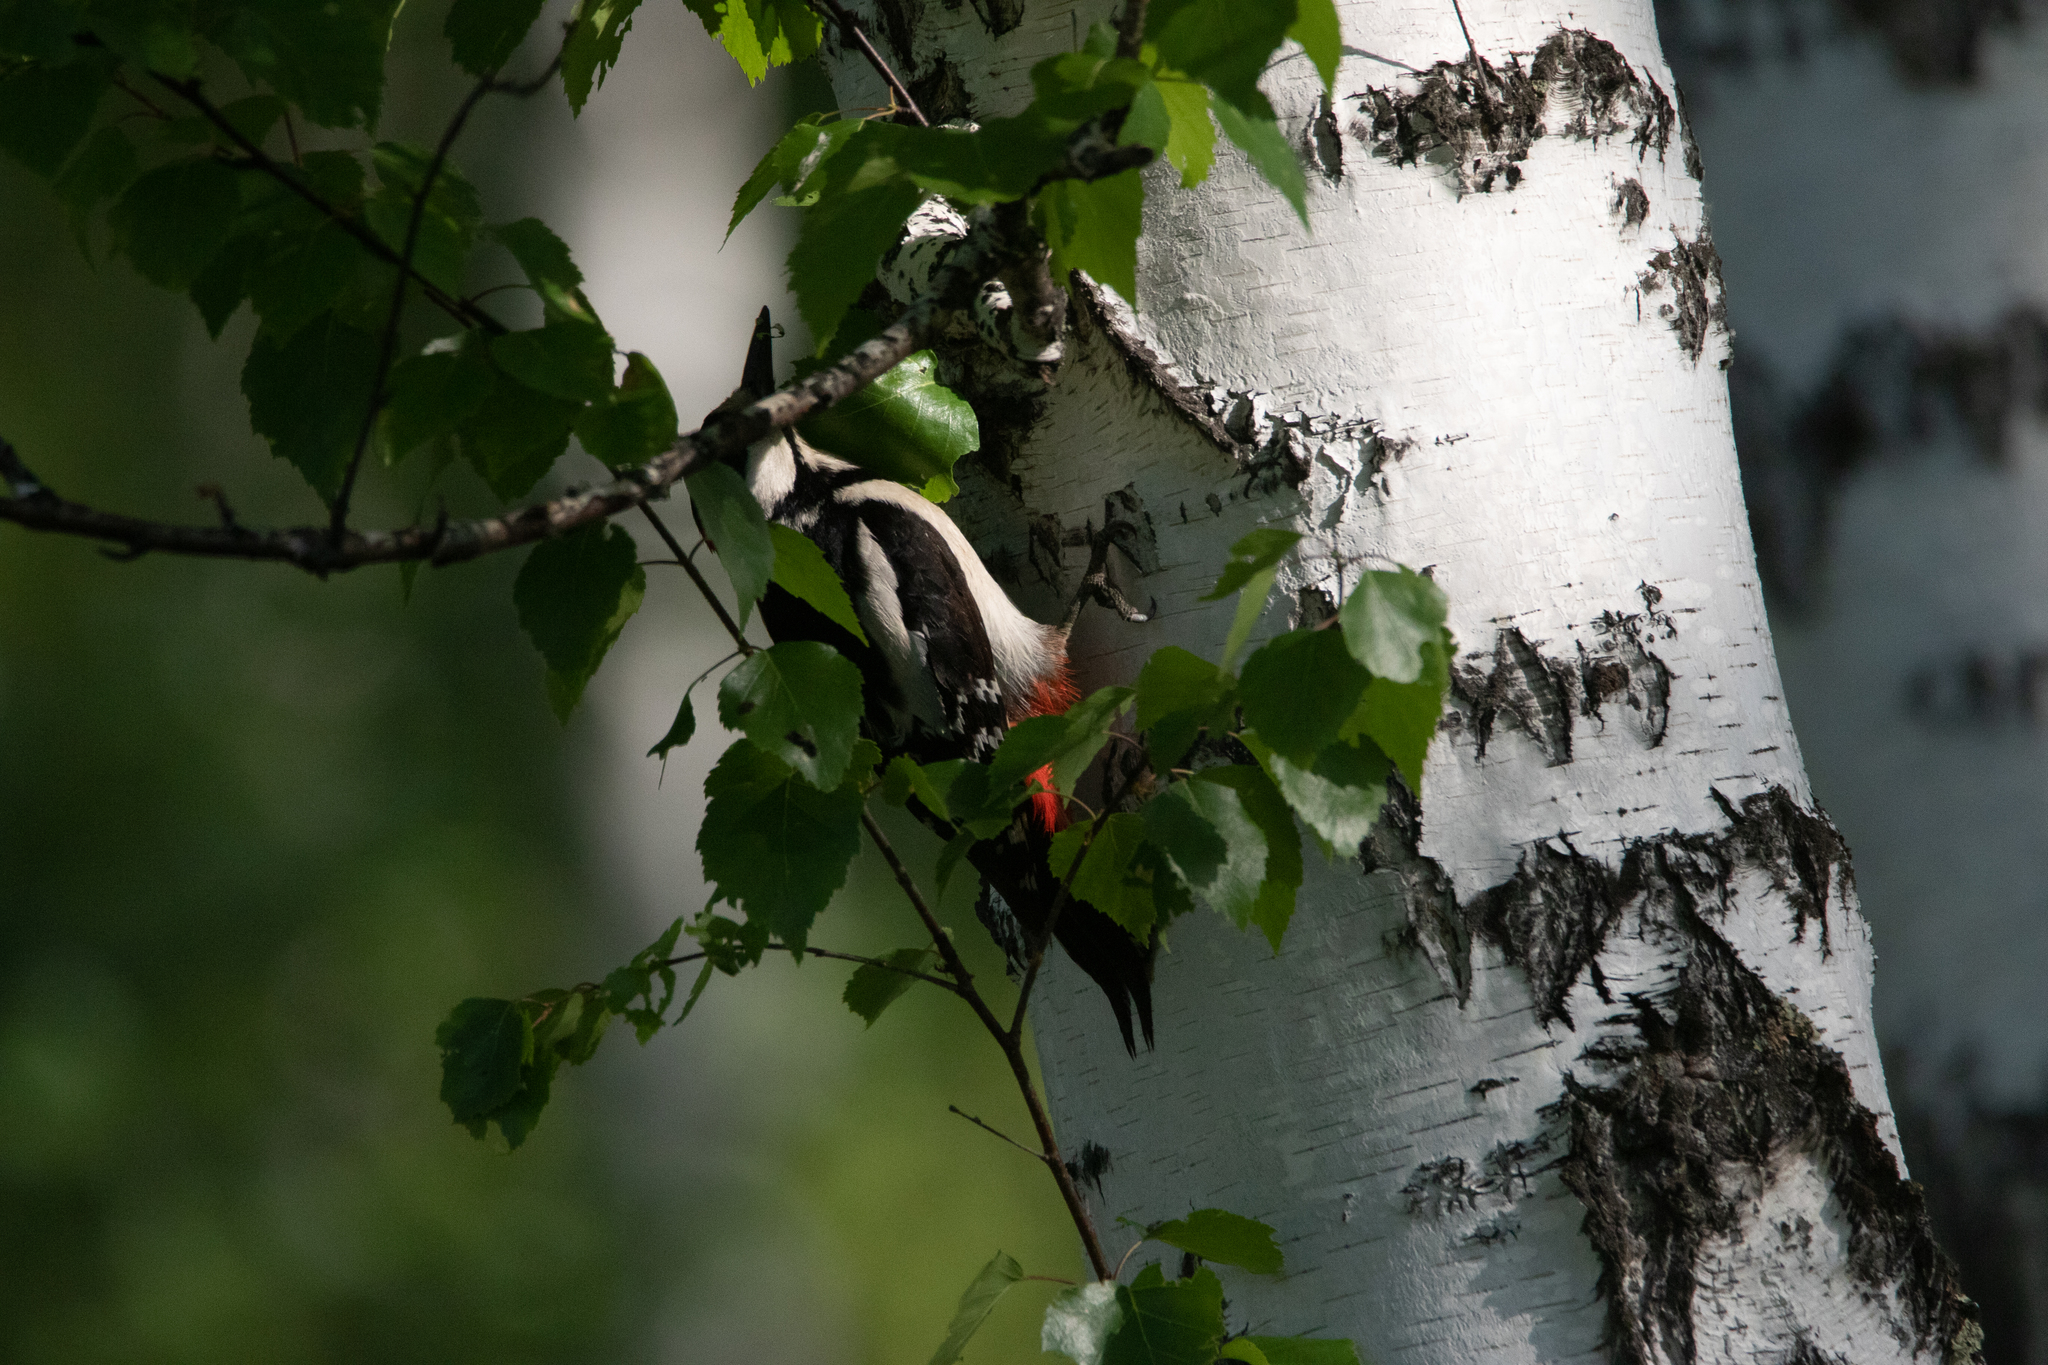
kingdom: Animalia
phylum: Chordata
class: Aves
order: Piciformes
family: Picidae
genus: Dendrocopos
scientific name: Dendrocopos major
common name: Great spotted woodpecker
